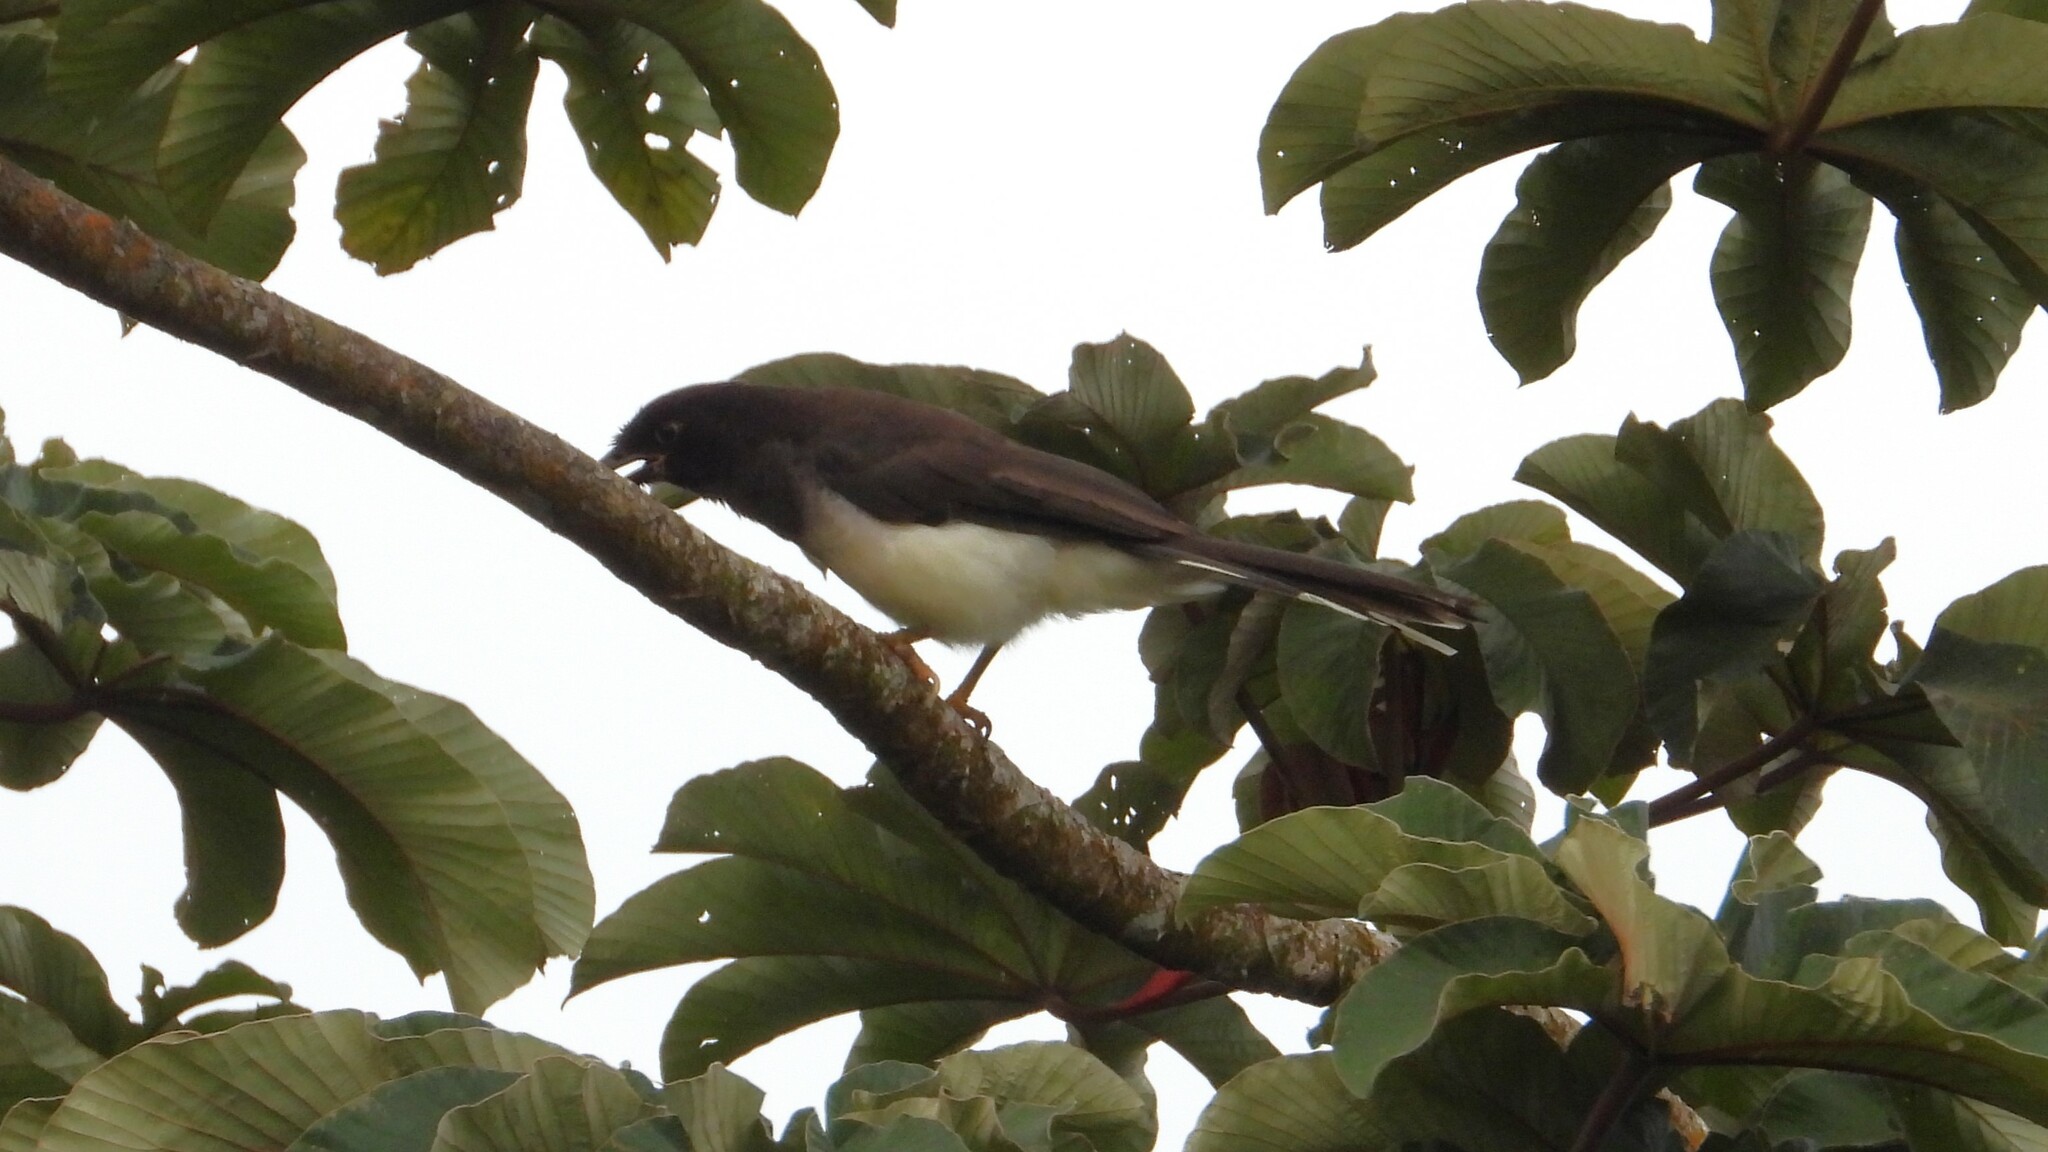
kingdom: Animalia
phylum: Chordata
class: Aves
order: Passeriformes
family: Corvidae
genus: Psilorhinus
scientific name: Psilorhinus morio
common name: Brown jay
